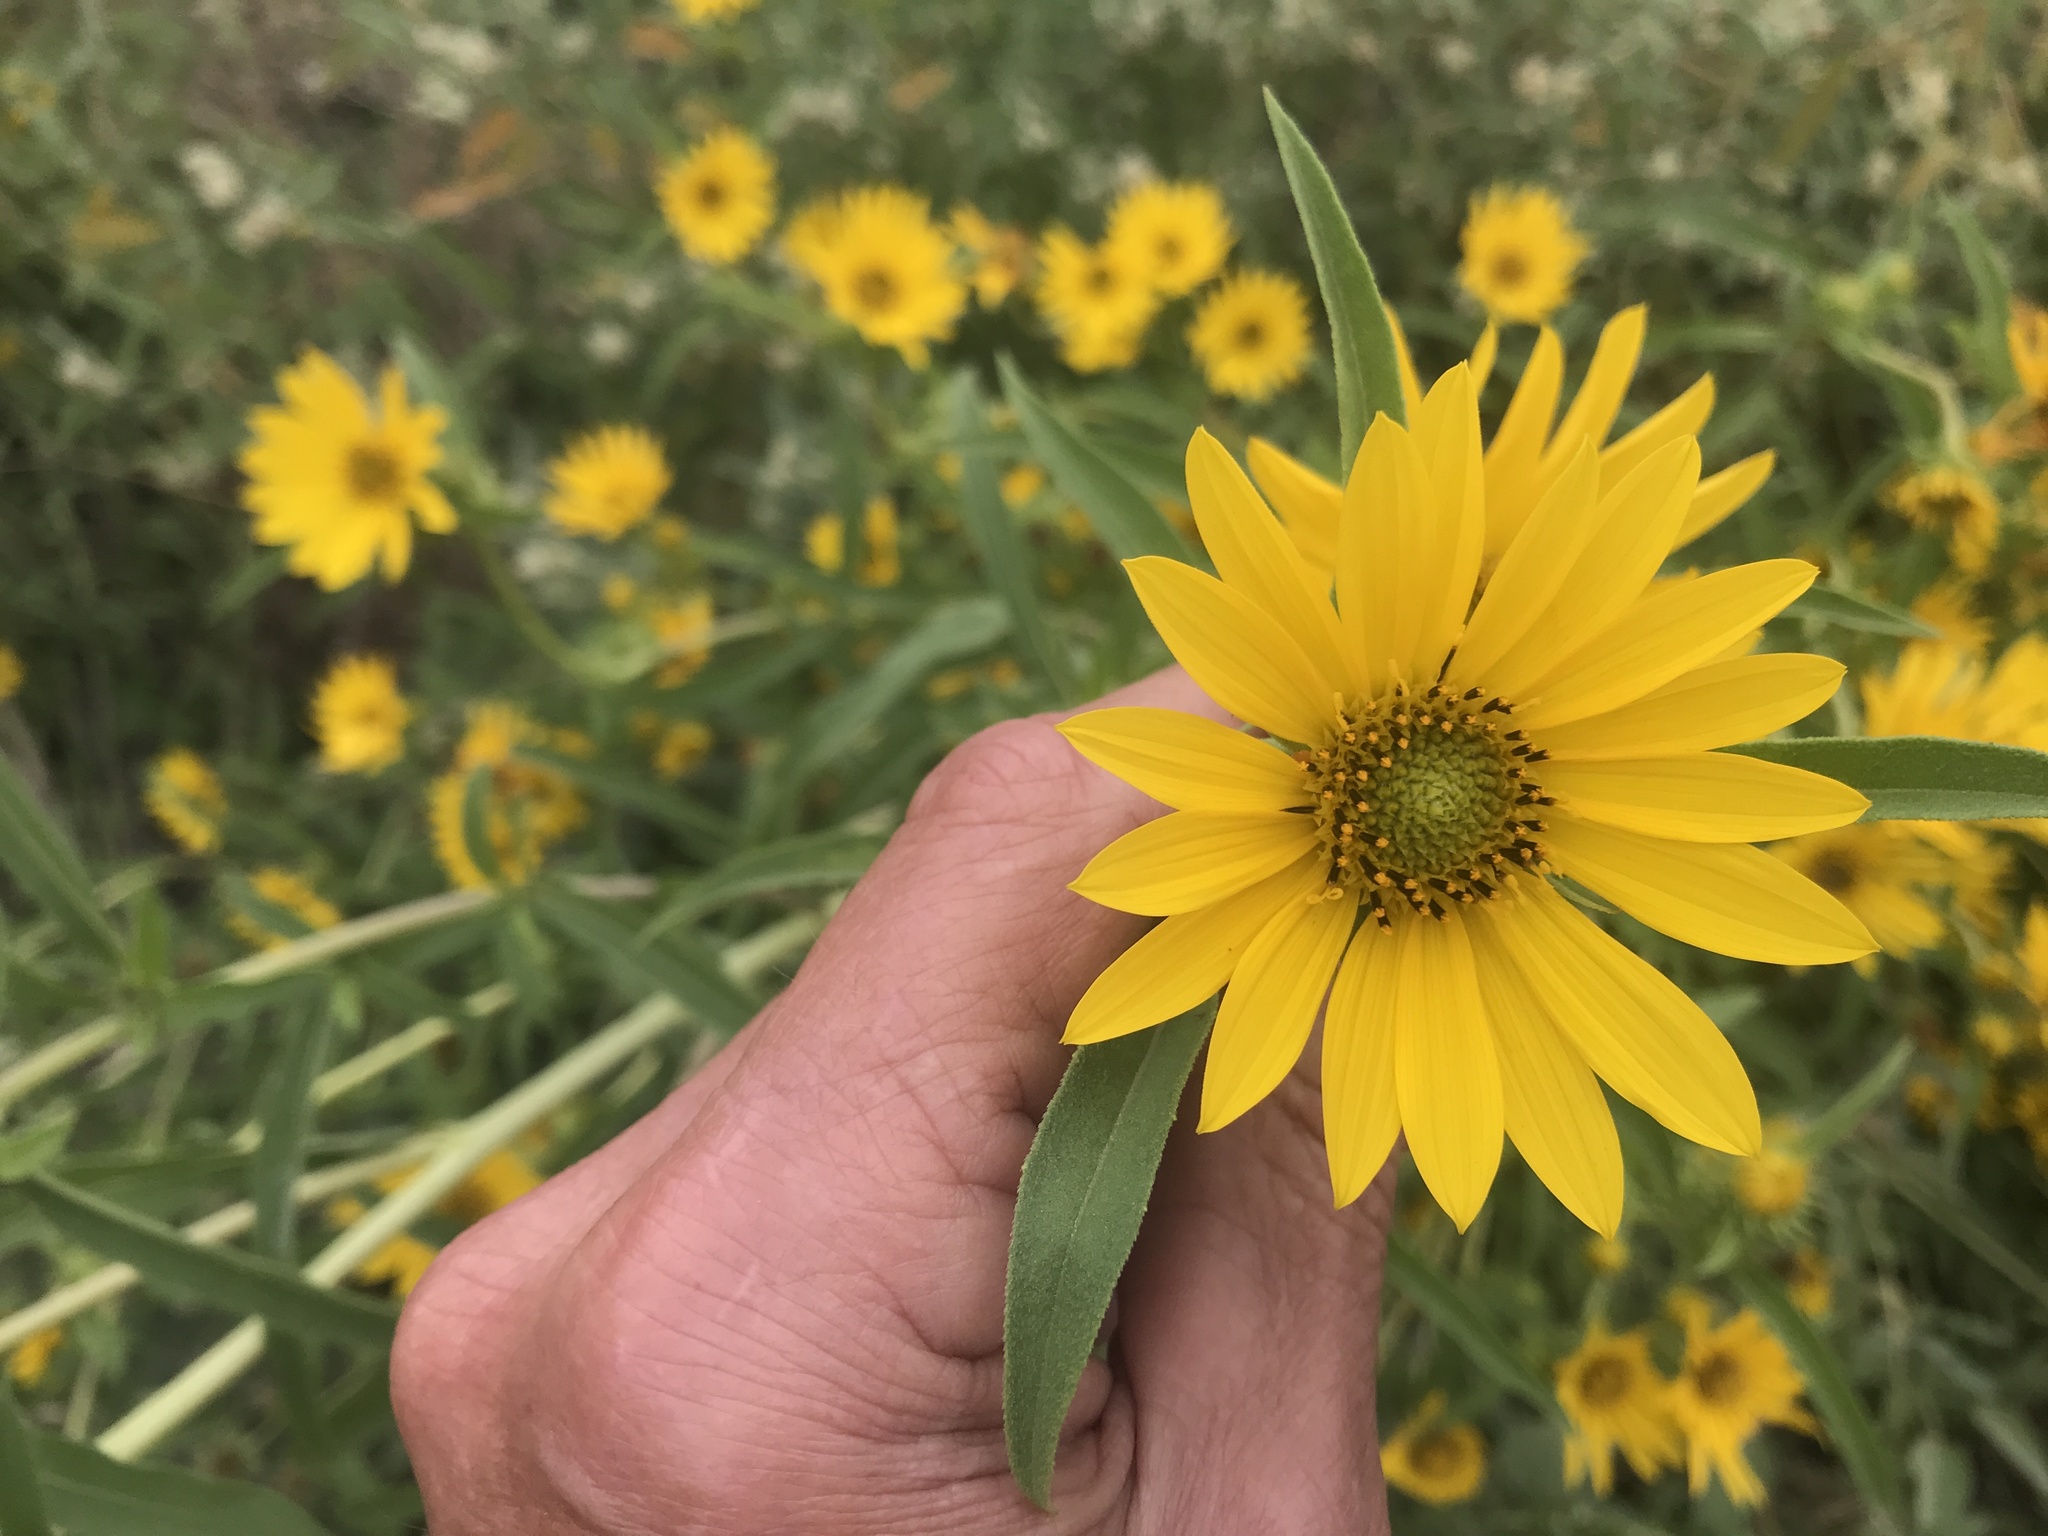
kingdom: Plantae
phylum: Tracheophyta
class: Magnoliopsida
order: Asterales
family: Asteraceae
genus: Helianthus
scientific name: Helianthus maximiliani
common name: Maximilian's sunflower
